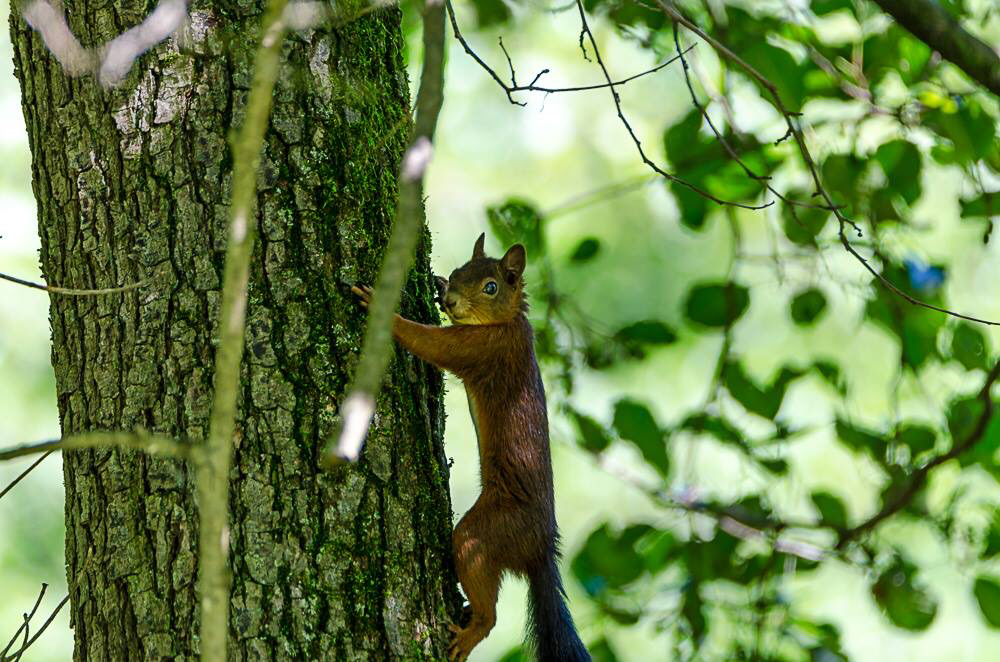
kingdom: Animalia
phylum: Chordata
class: Mammalia
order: Rodentia
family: Sciuridae
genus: Sciurus
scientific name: Sciurus vulgaris
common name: Eurasian red squirrel
